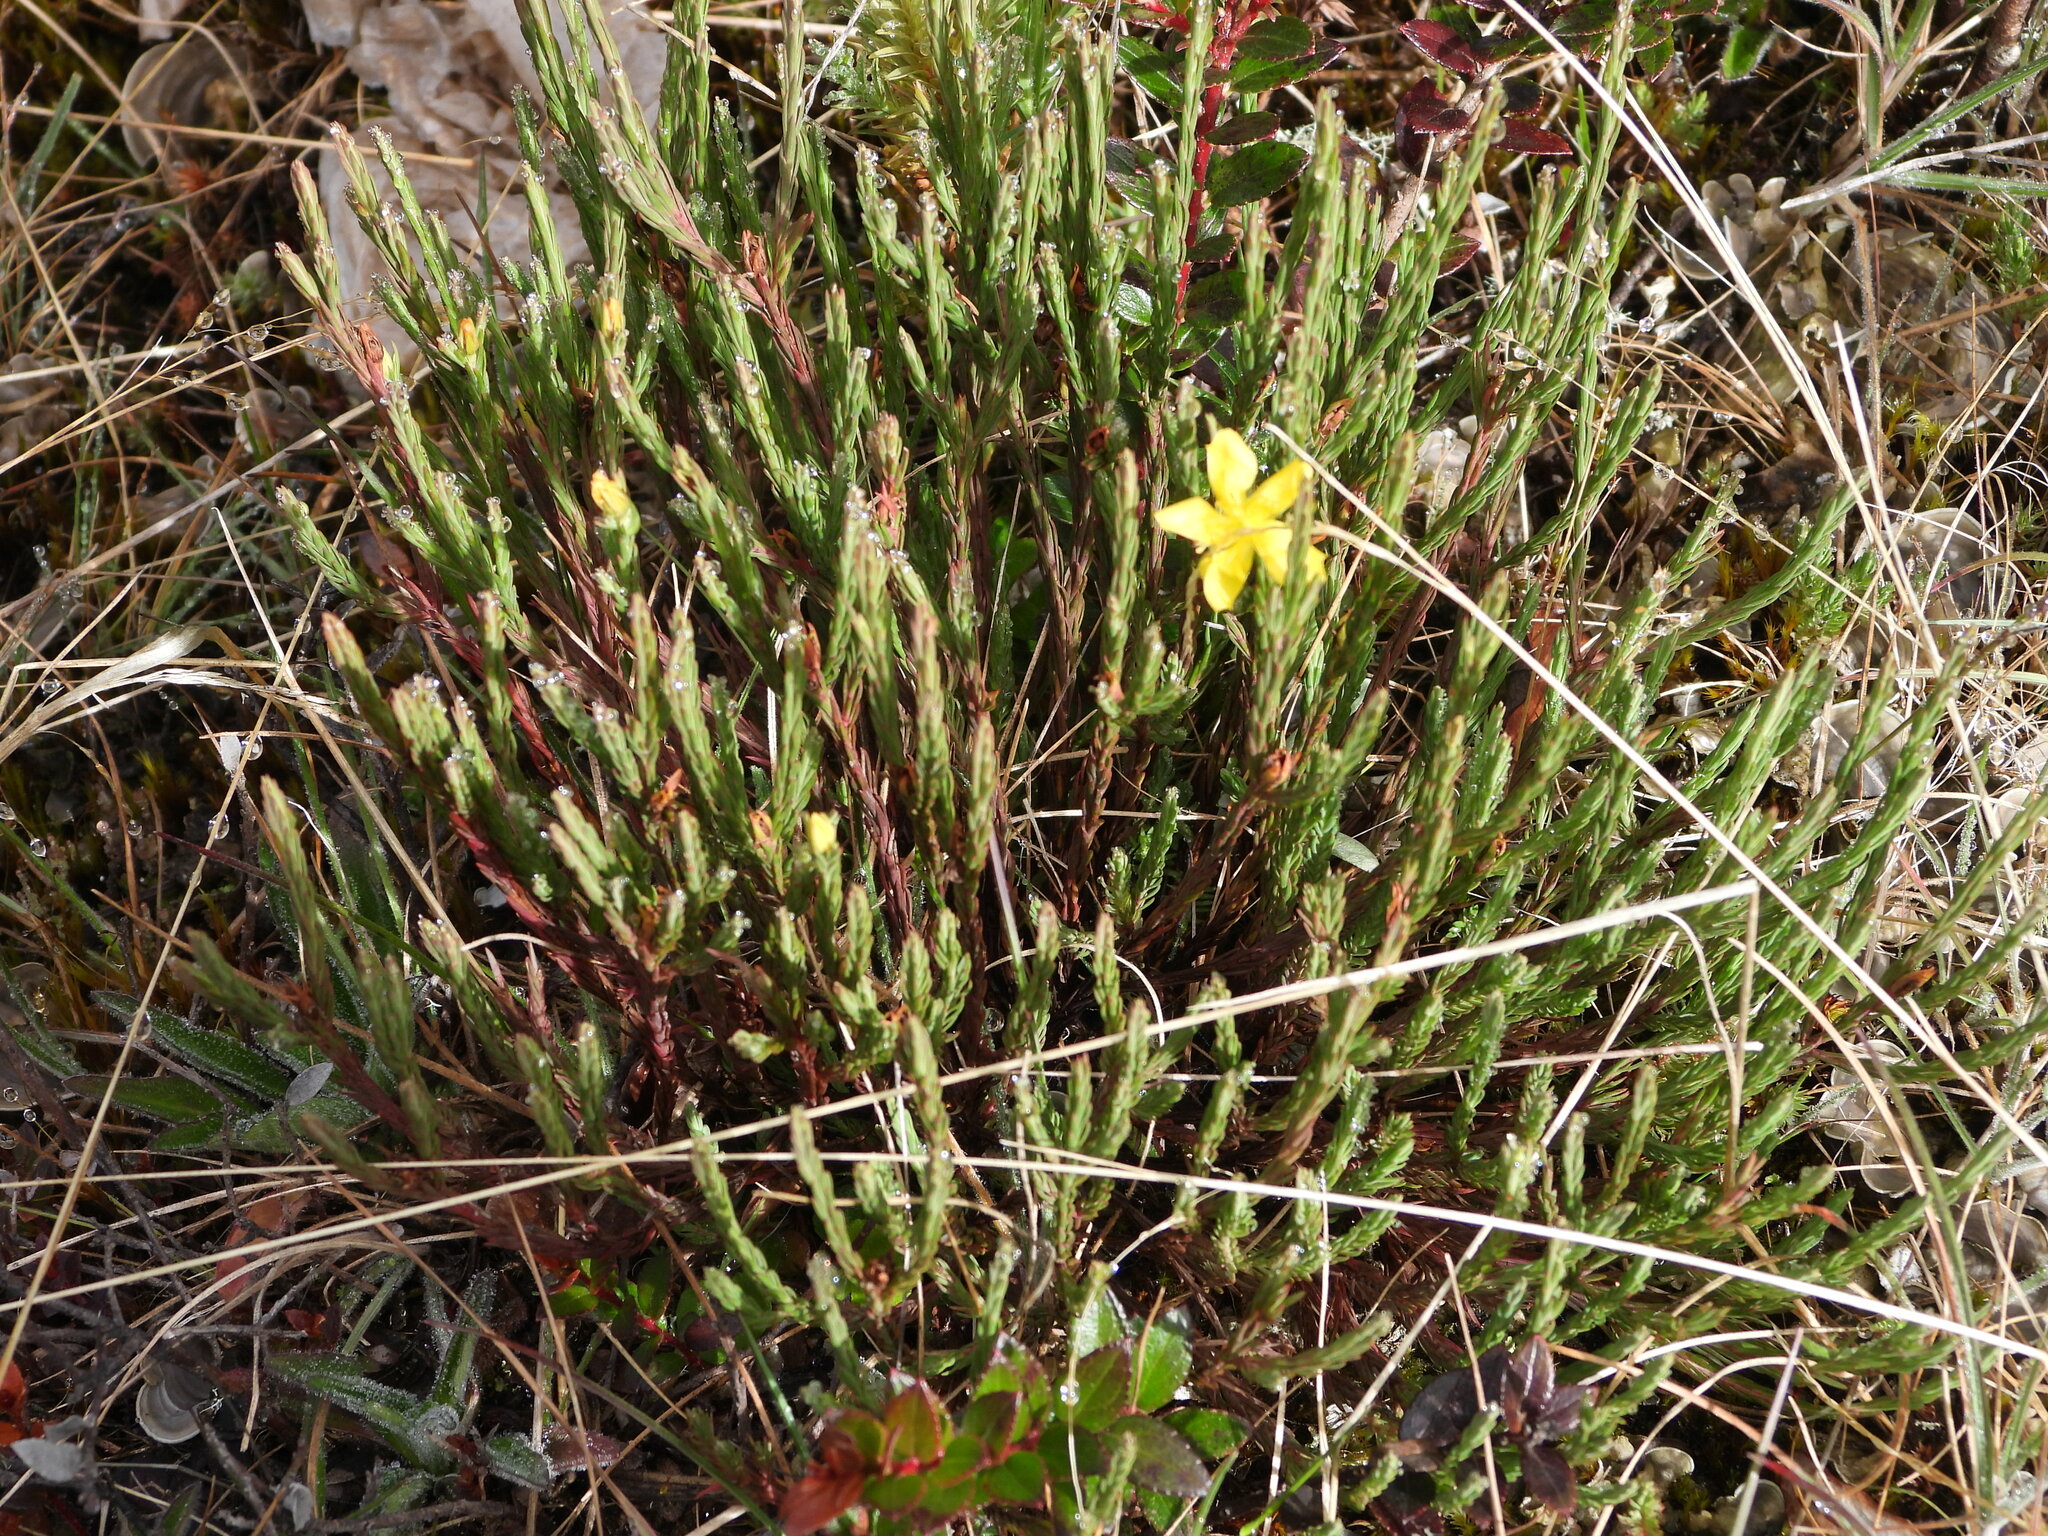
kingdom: Plantae
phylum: Tracheophyta
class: Magnoliopsida
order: Malpighiales
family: Hypericaceae
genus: Hypericum
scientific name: Hypericum costaricense
